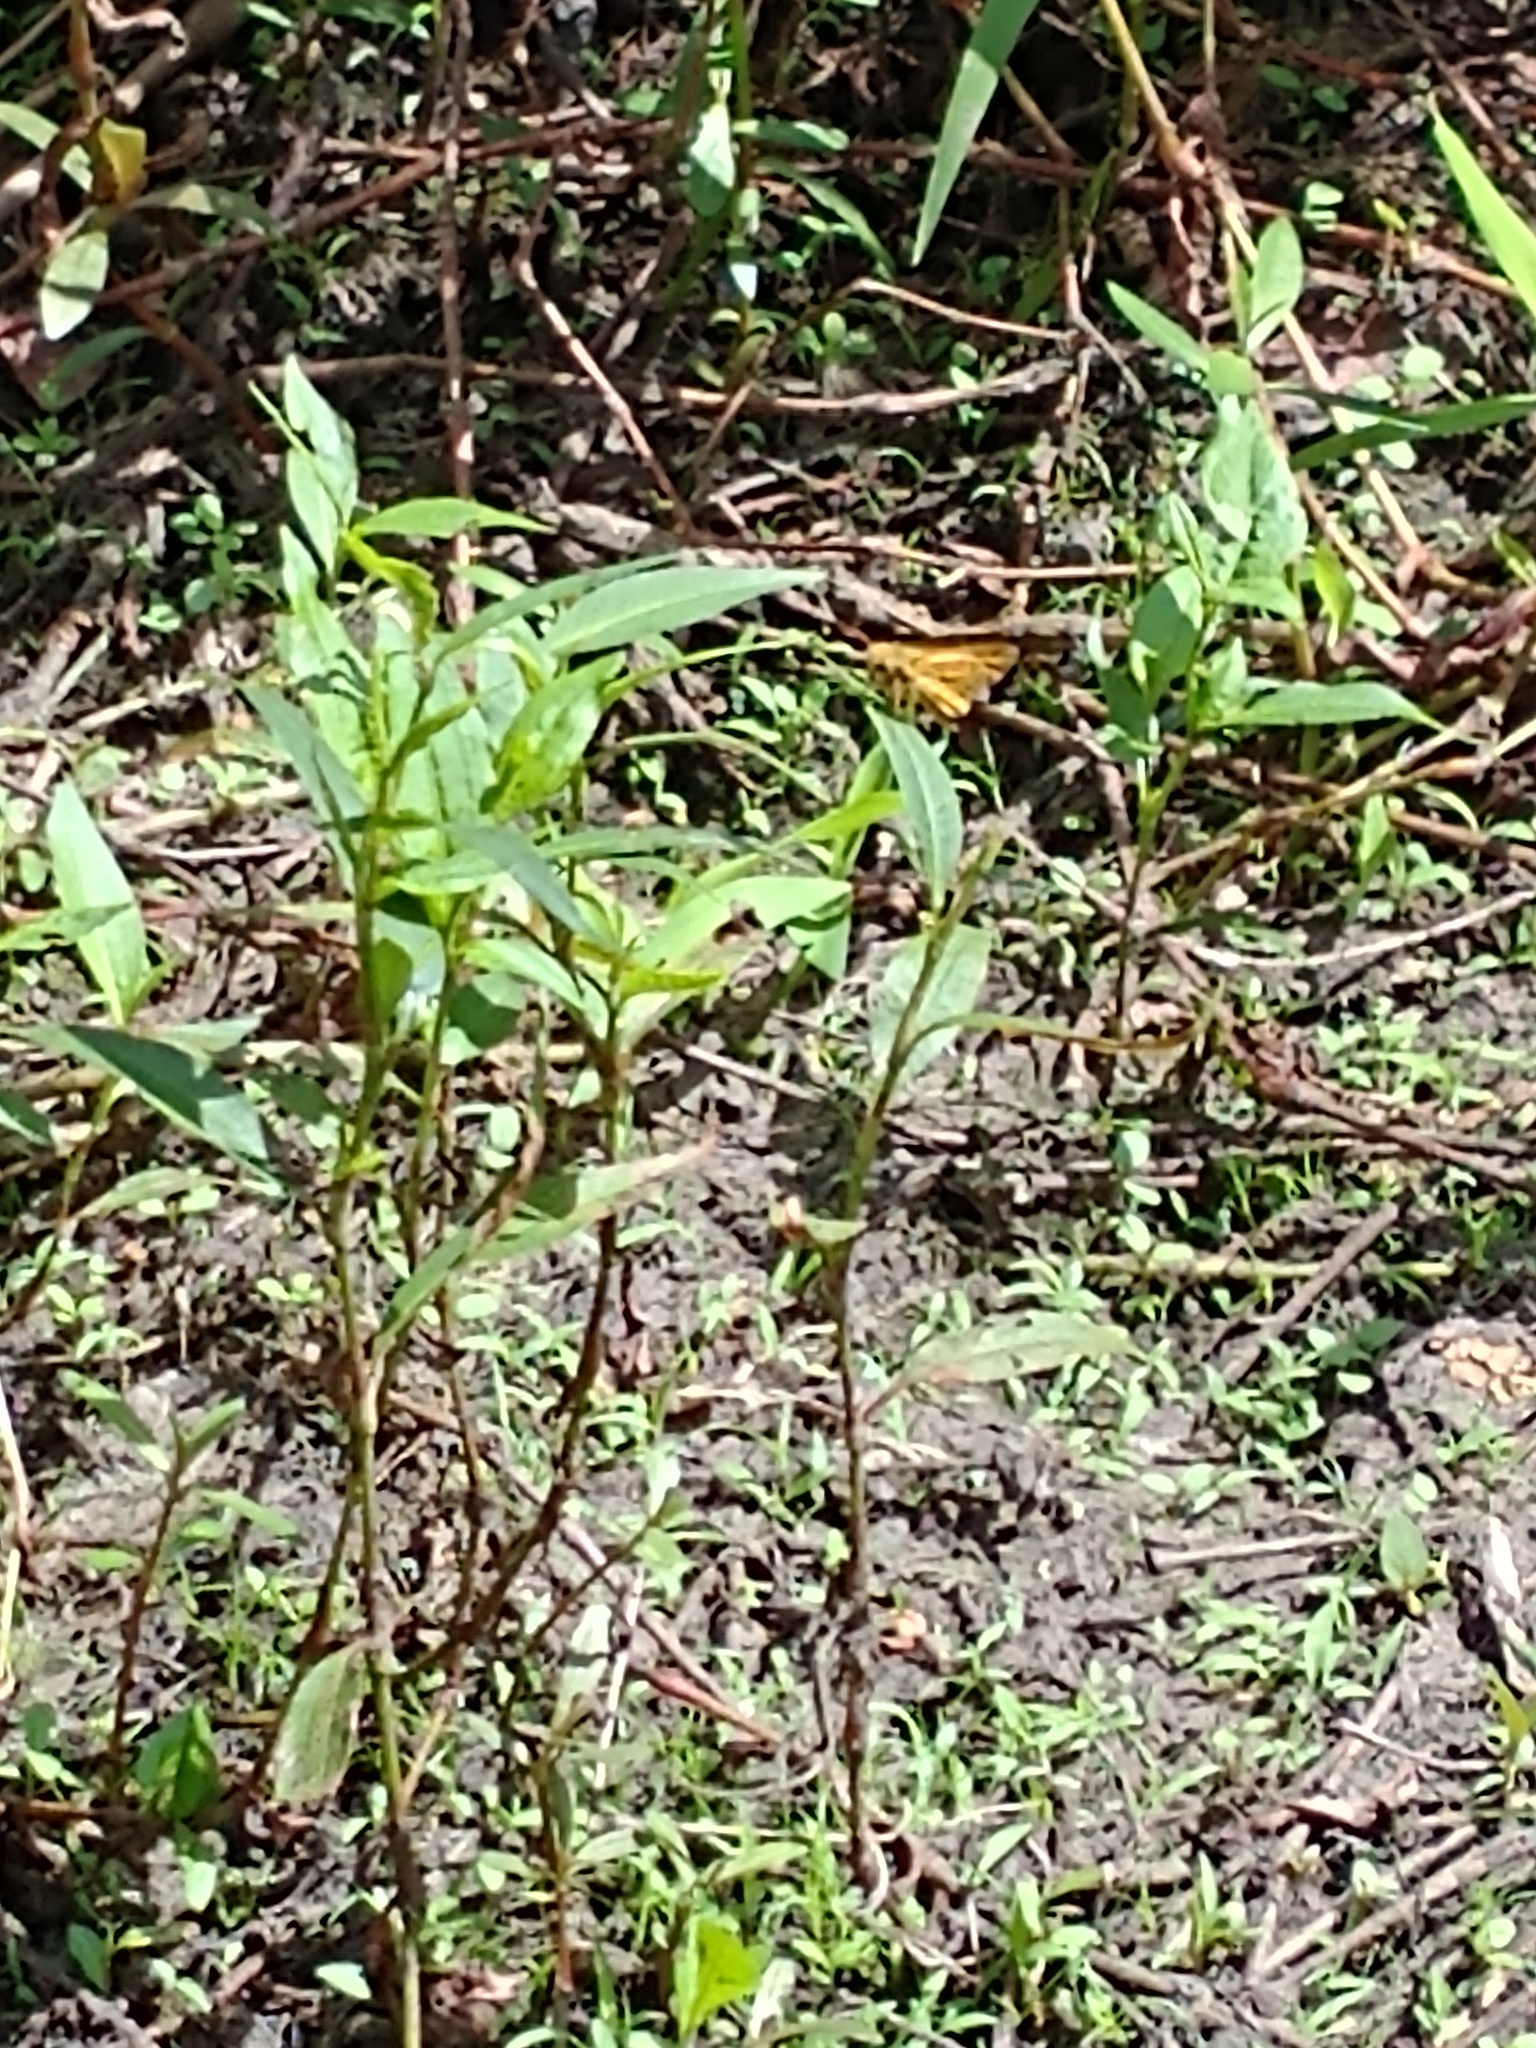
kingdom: Animalia
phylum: Arthropoda
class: Insecta
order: Lepidoptera
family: Hesperiidae
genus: Hylephila
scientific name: Hylephila phyleus
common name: Fiery skipper
